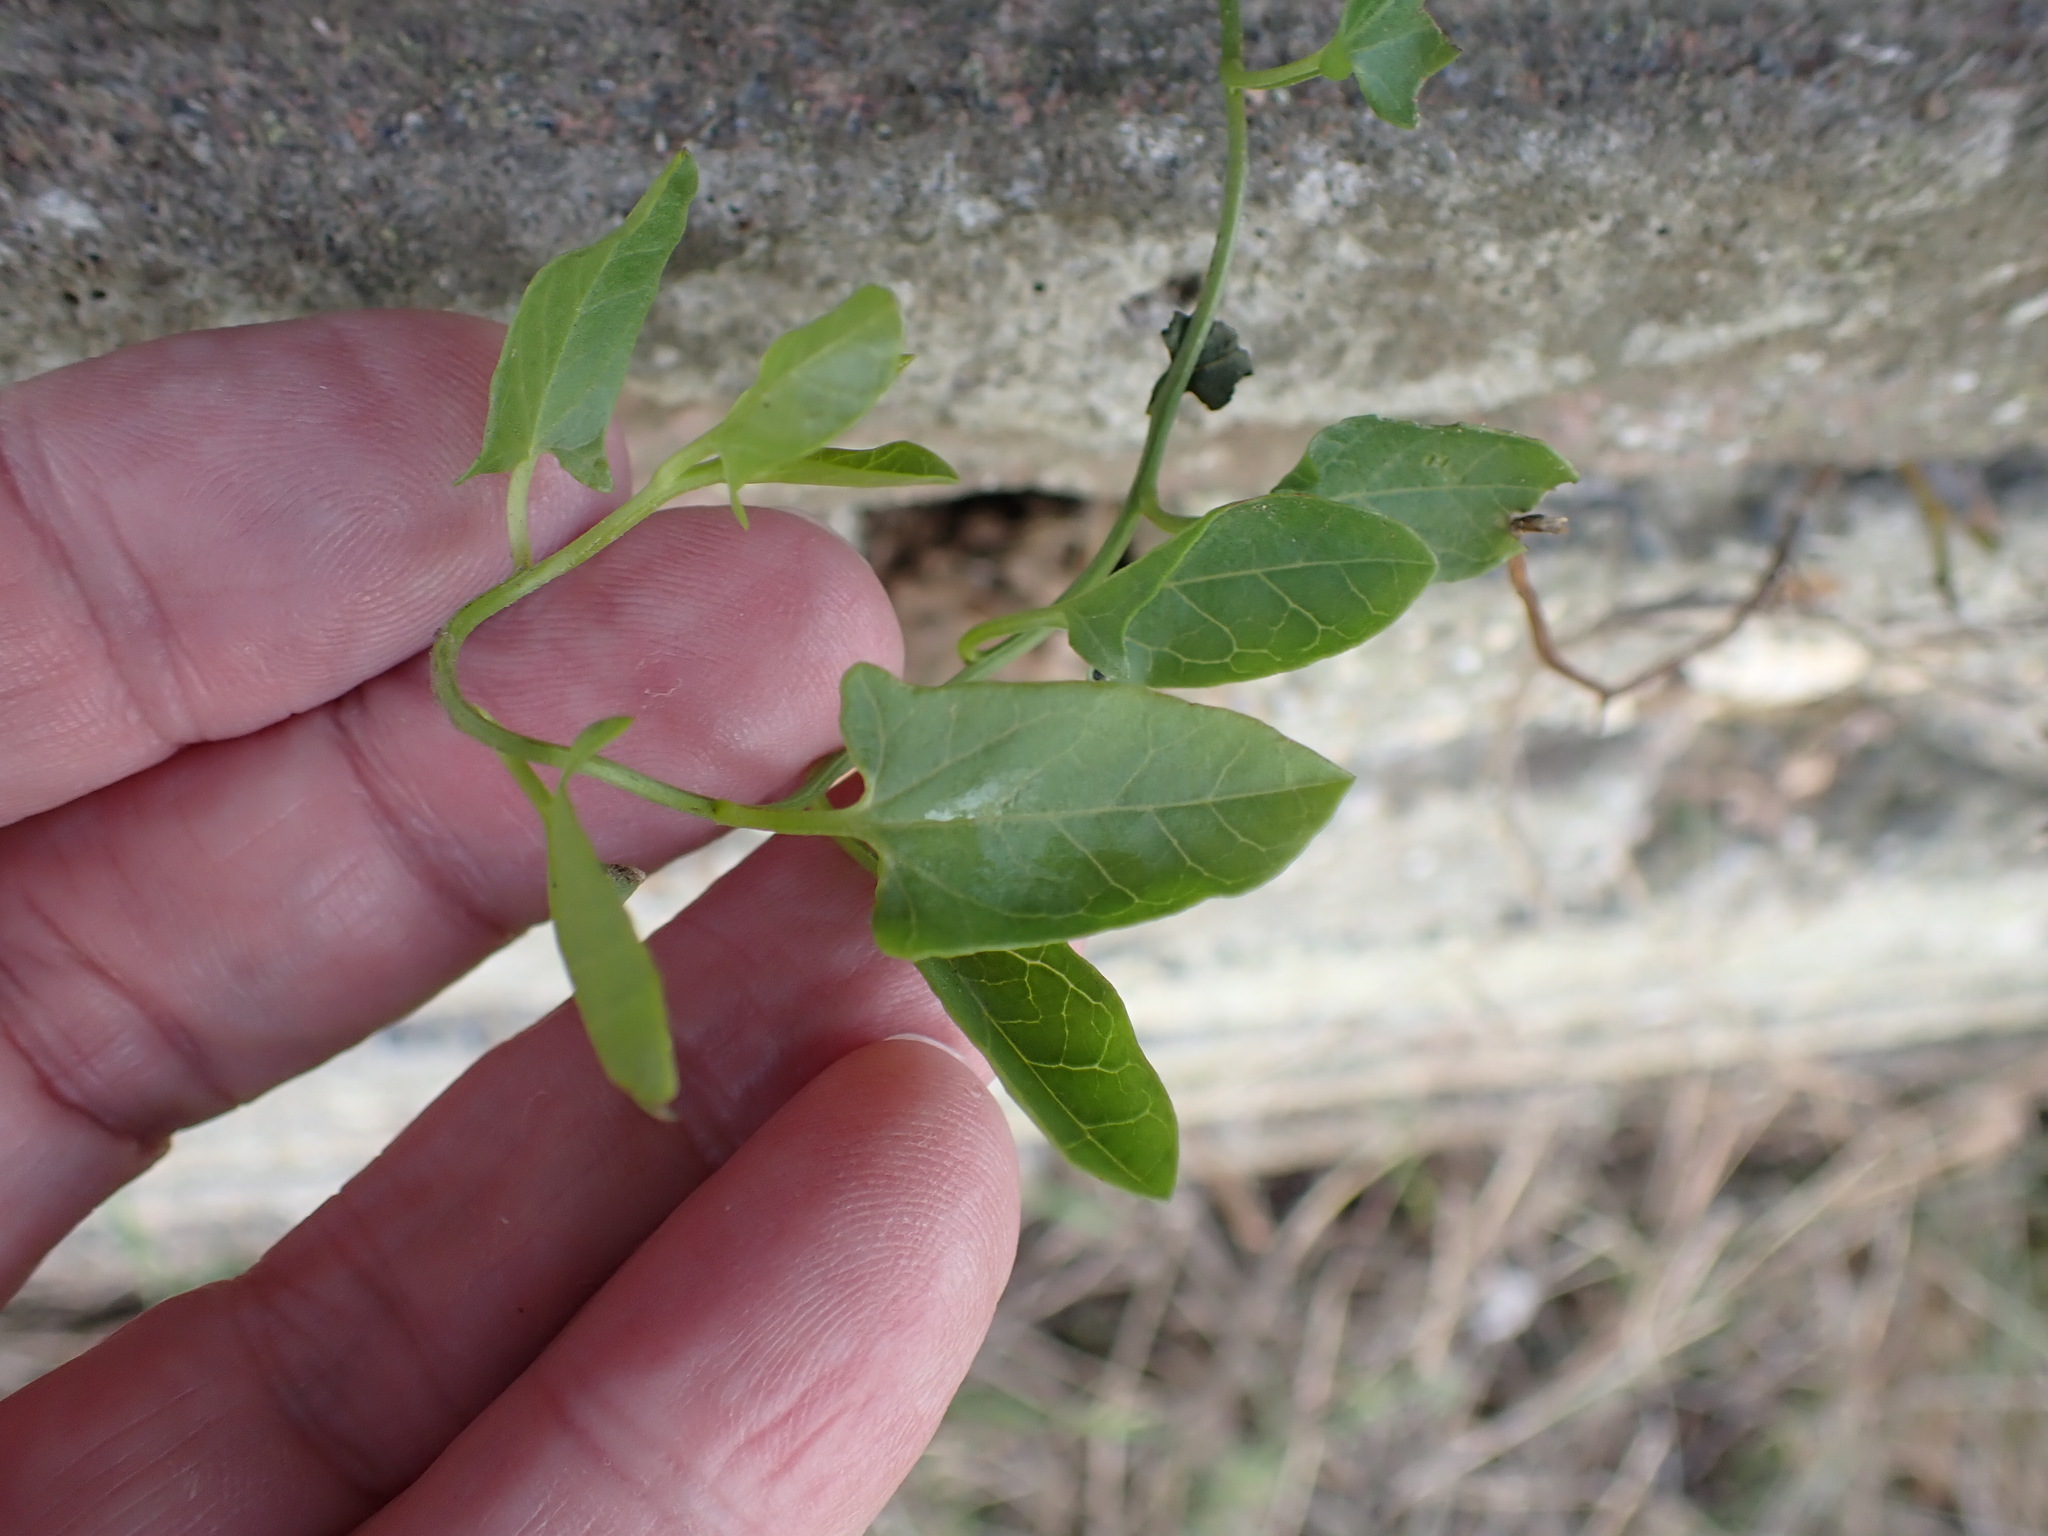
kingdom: Plantae
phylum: Tracheophyta
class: Magnoliopsida
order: Solanales
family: Convolvulaceae
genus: Convolvulus
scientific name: Convolvulus arvensis
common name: Field bindweed
